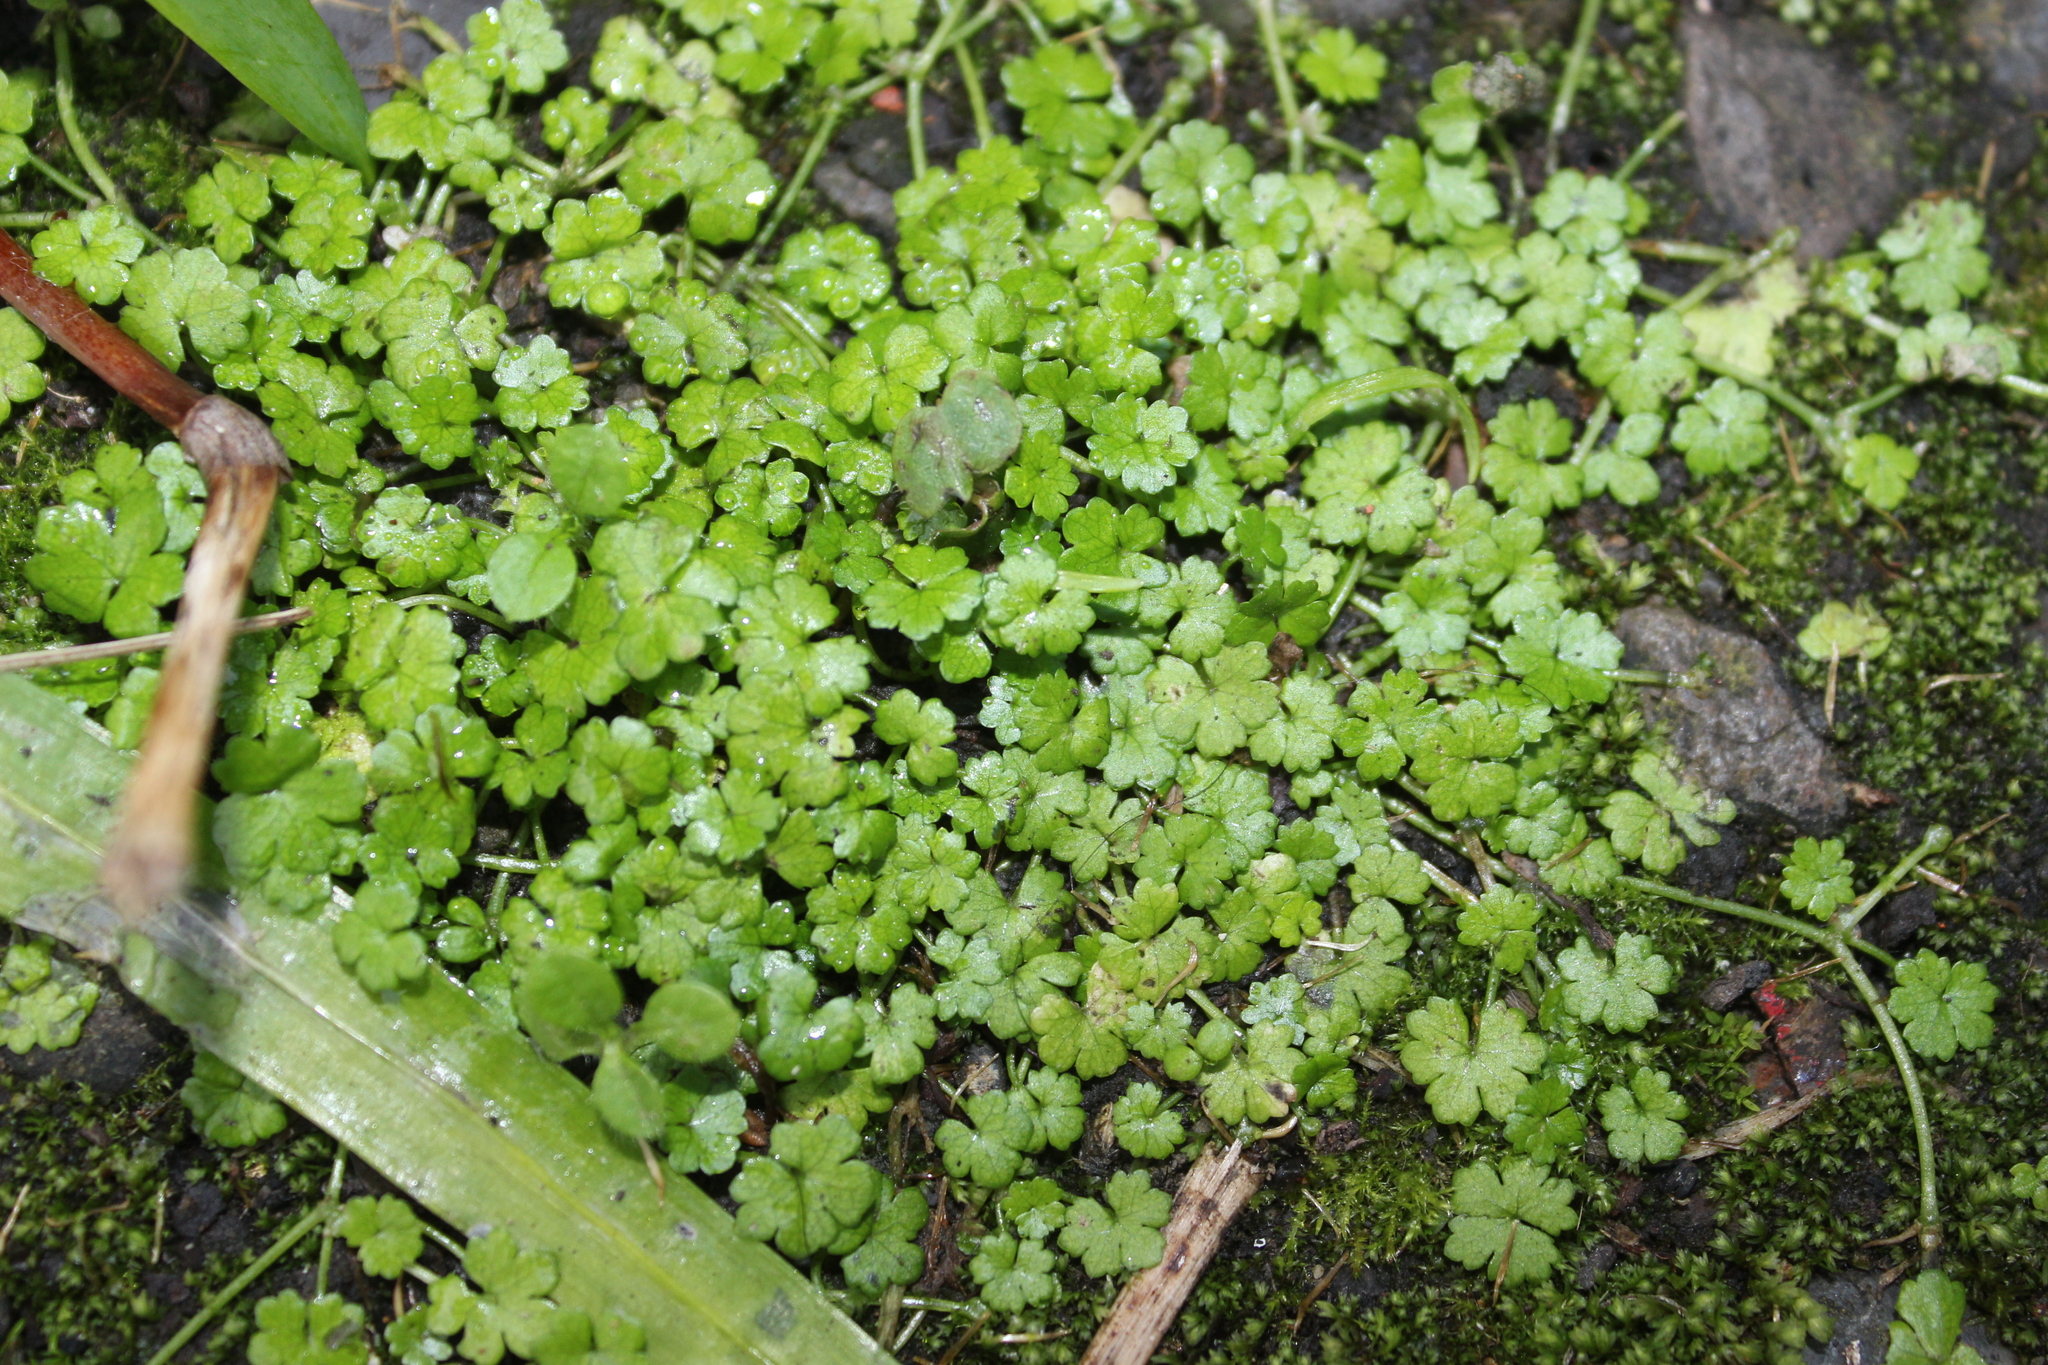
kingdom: Plantae
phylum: Tracheophyta
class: Magnoliopsida
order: Apiales
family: Araliaceae
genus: Hydrocotyle
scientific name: Hydrocotyle heteromeria
